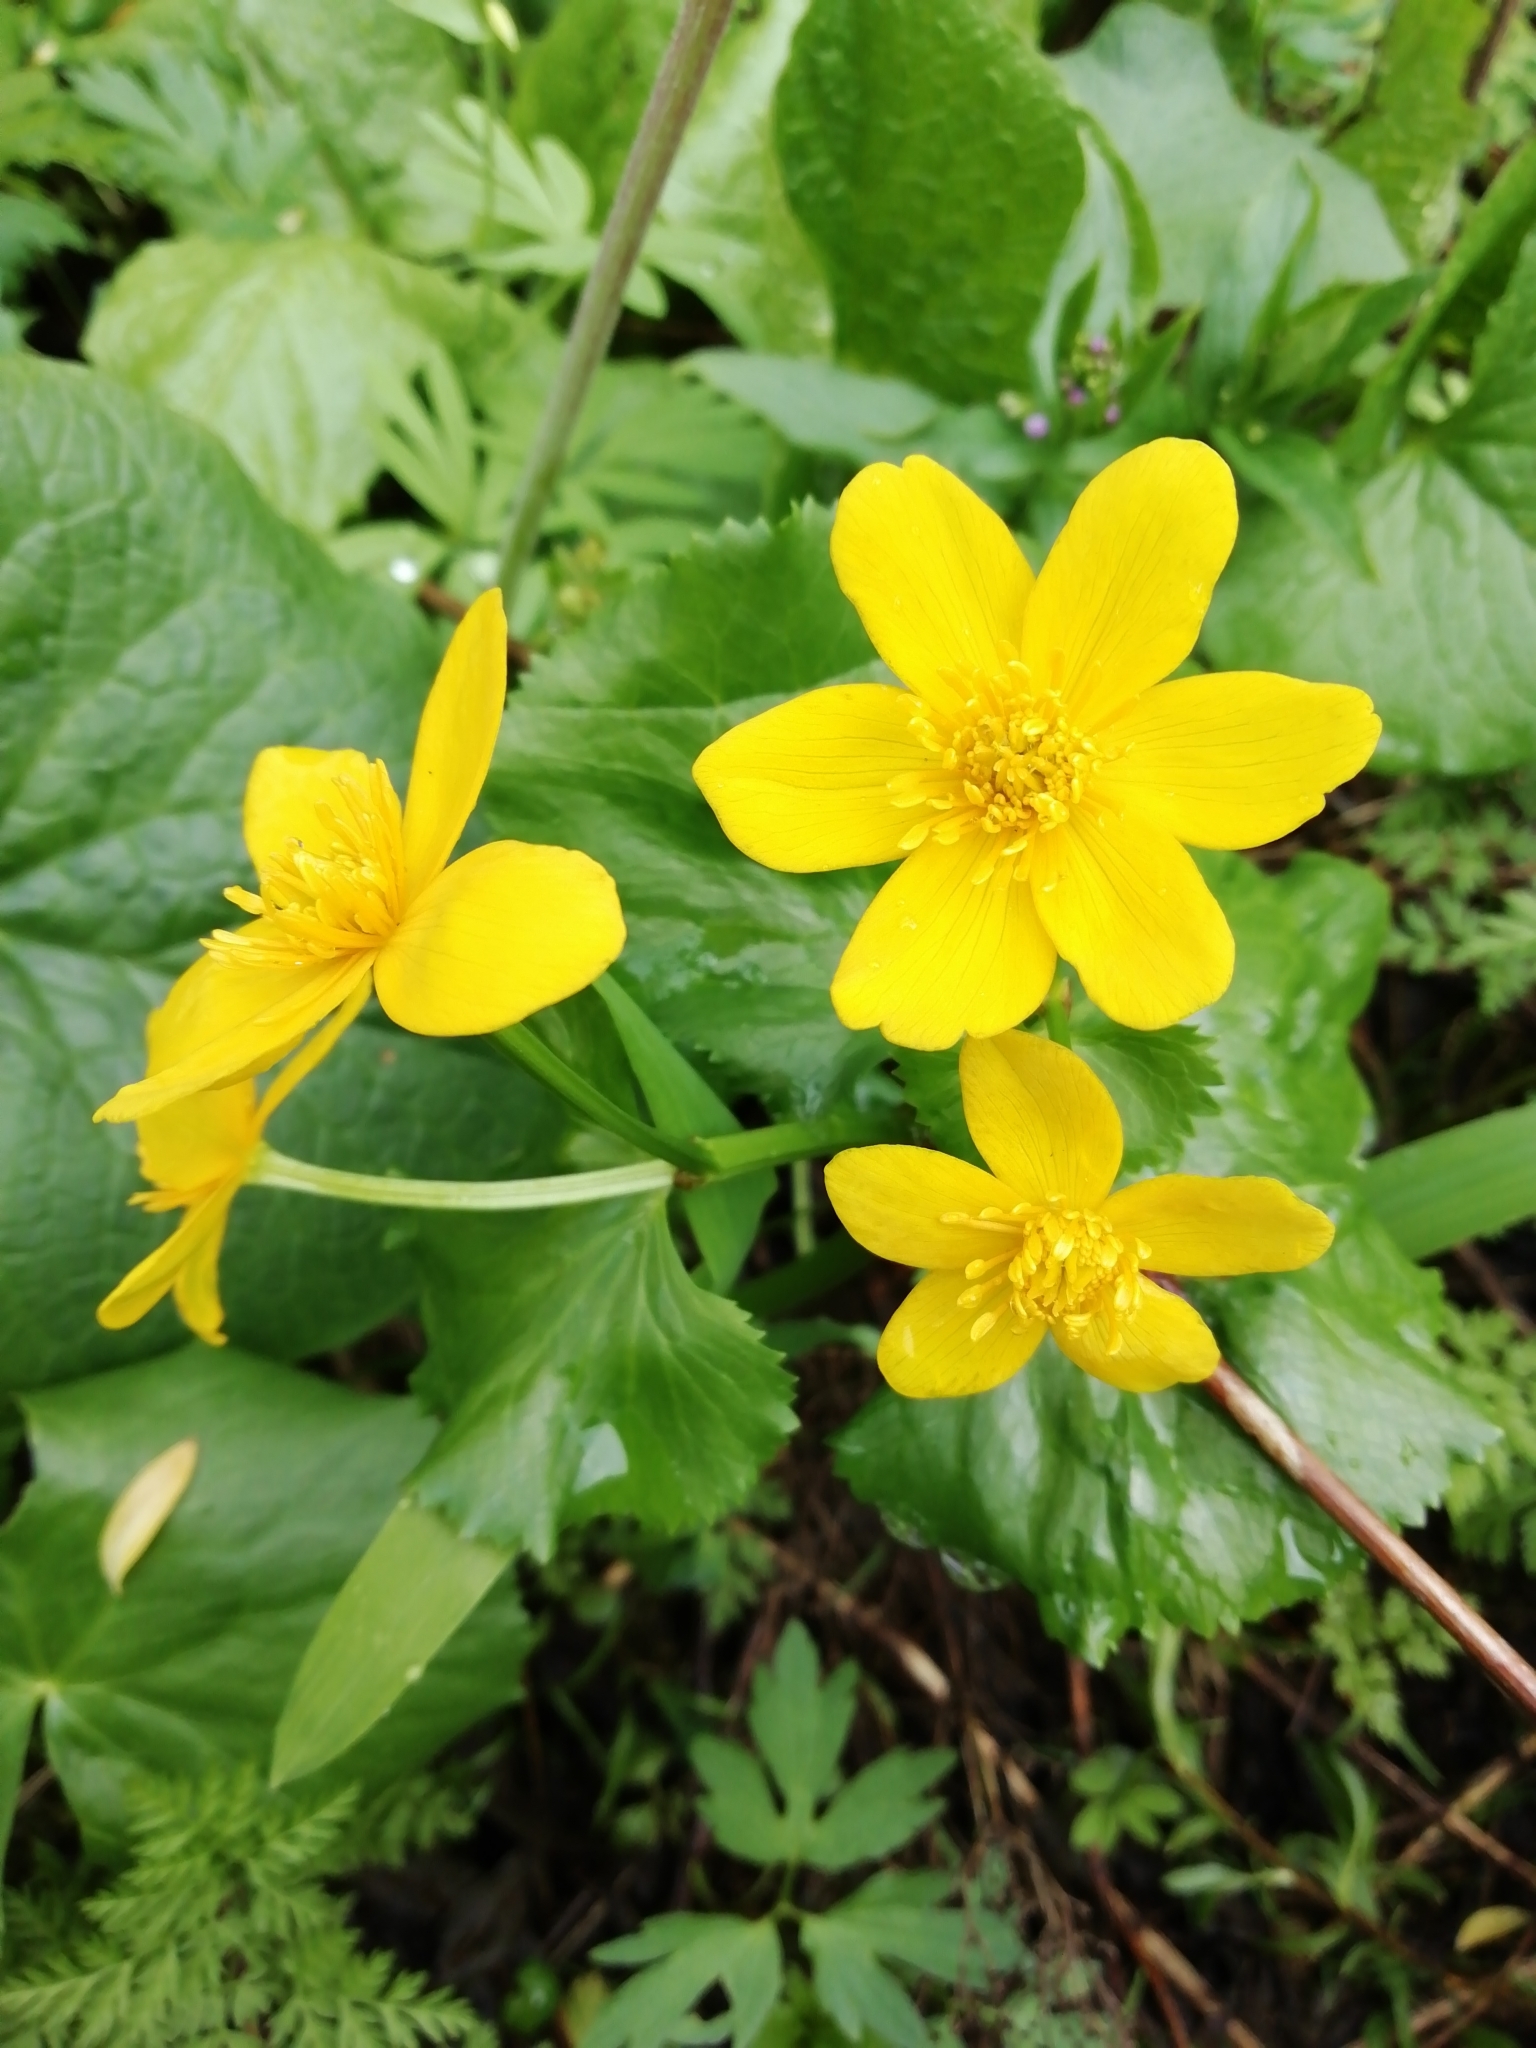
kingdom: Plantae
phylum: Tracheophyta
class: Magnoliopsida
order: Ranunculales
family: Ranunculaceae
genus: Caltha
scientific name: Caltha palustris
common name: Marsh marigold
